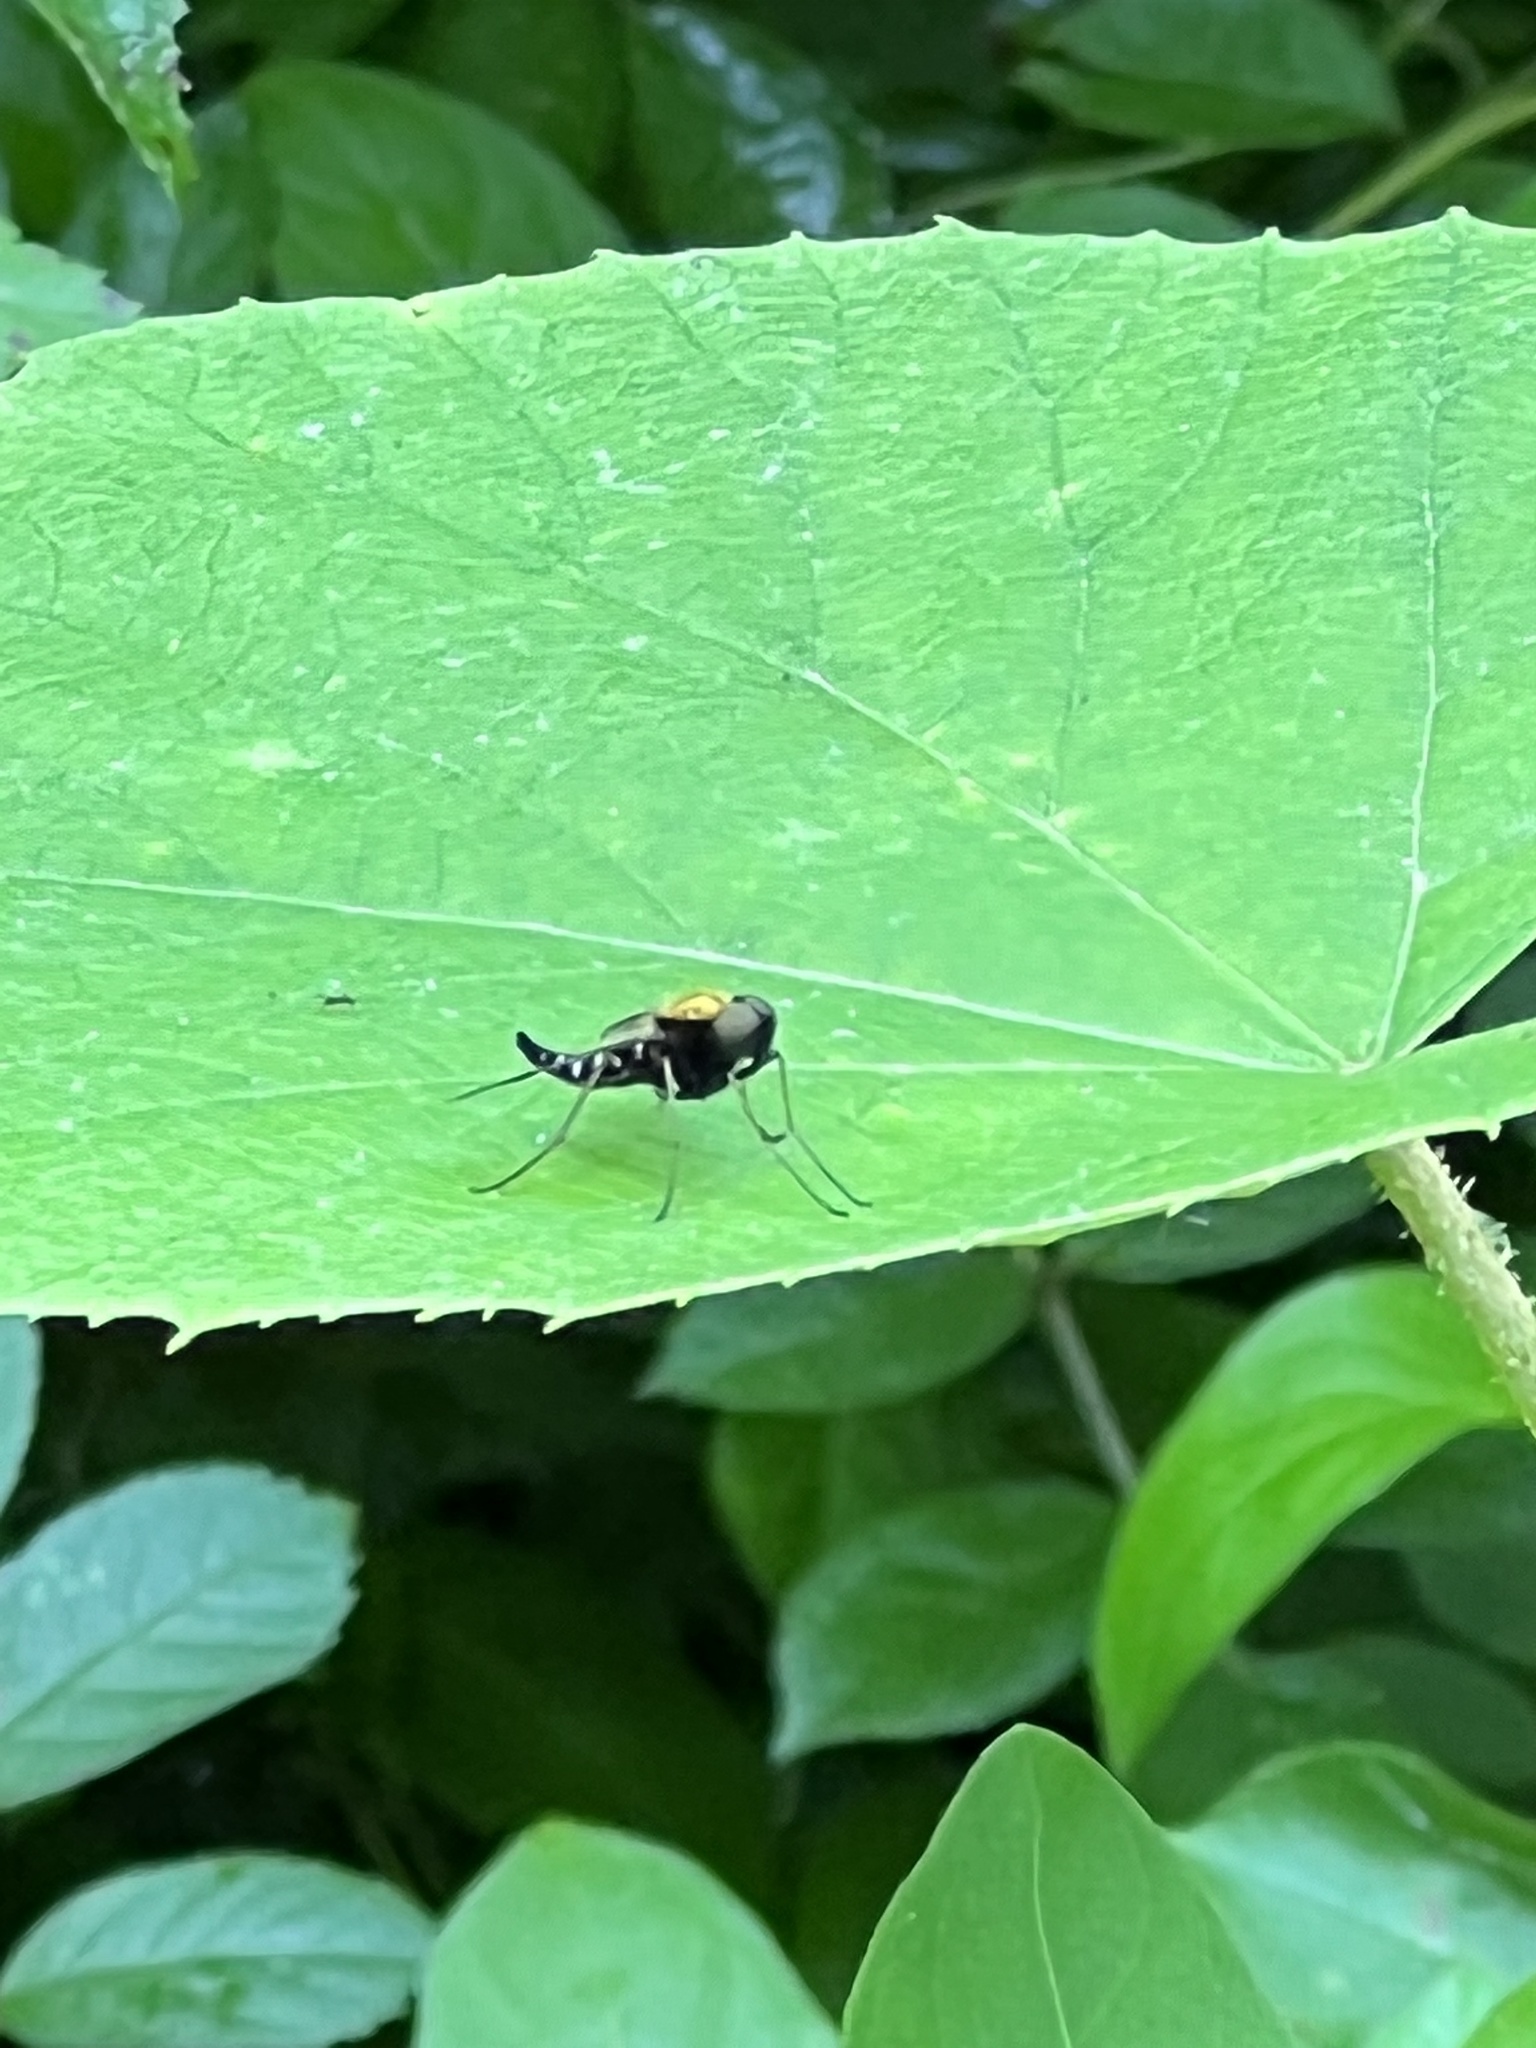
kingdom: Animalia
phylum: Arthropoda
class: Insecta
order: Diptera
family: Rhagionidae
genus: Chrysopilus
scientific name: Chrysopilus thoracicus
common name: Golden-backed snipe fly
